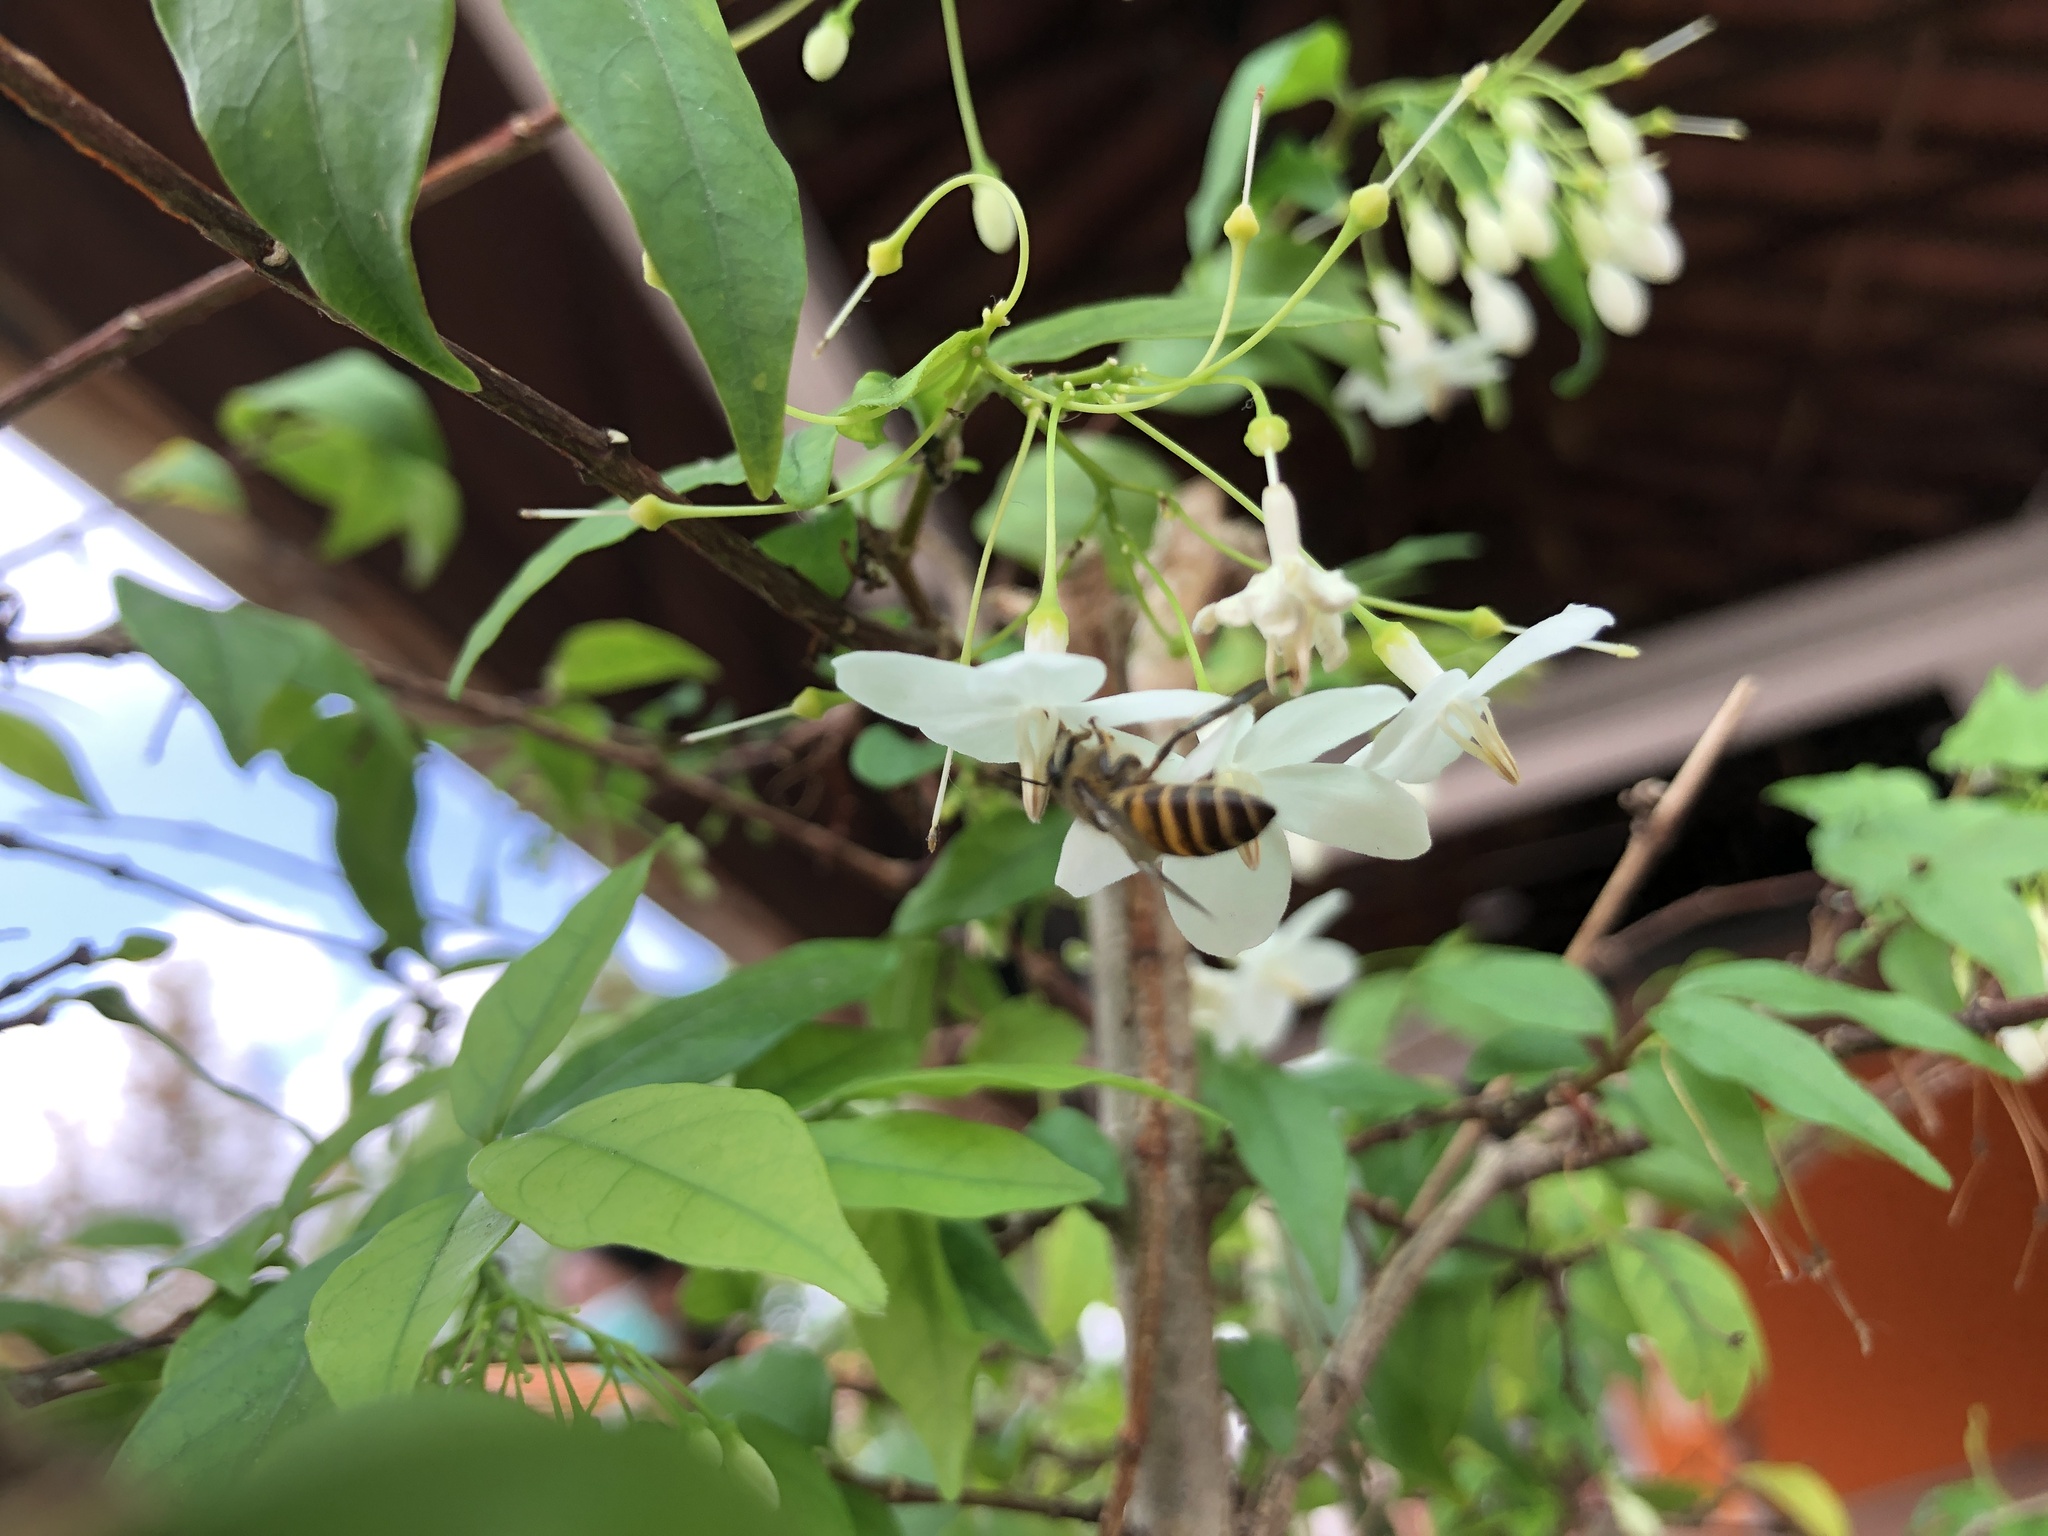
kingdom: Animalia
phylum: Arthropoda
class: Insecta
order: Hymenoptera
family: Apidae
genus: Apis
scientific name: Apis cerana
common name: Honey bee
